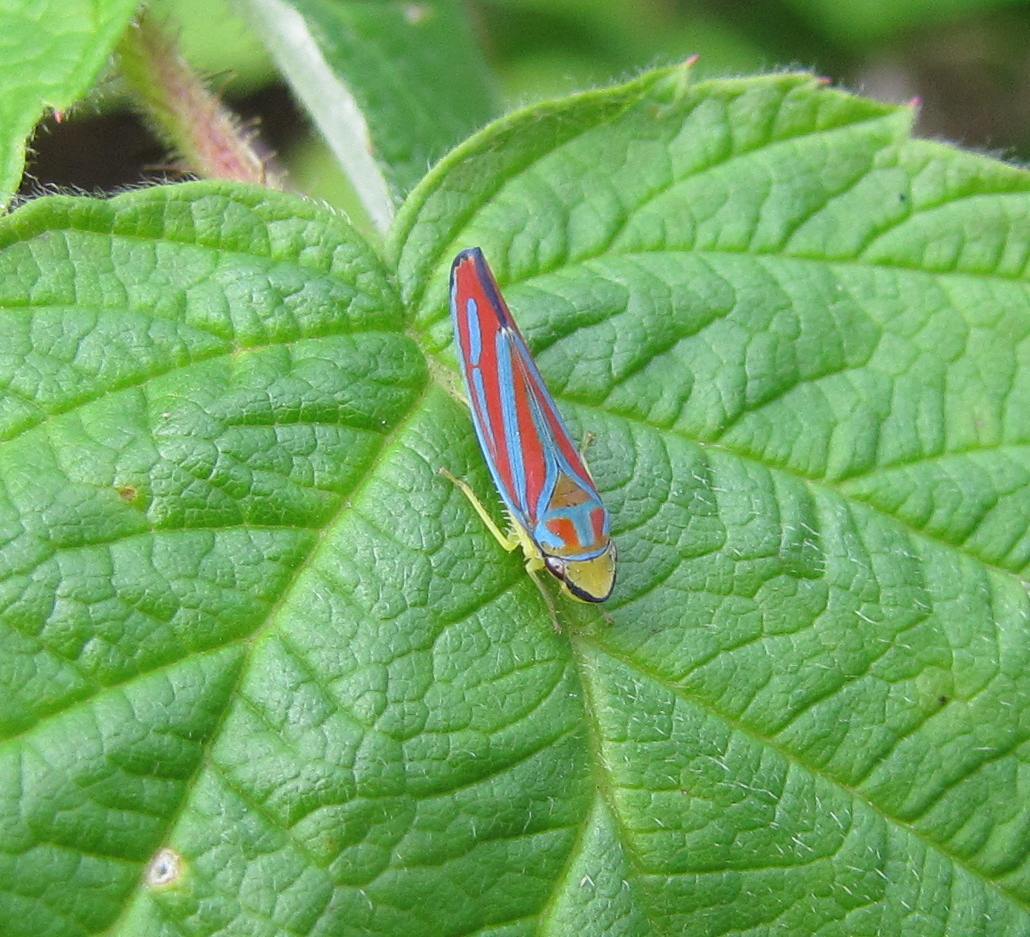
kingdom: Animalia
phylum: Arthropoda
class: Insecta
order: Hemiptera
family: Cicadellidae
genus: Graphocephala
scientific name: Graphocephala coccinea
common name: Candy-striped leafhopper
